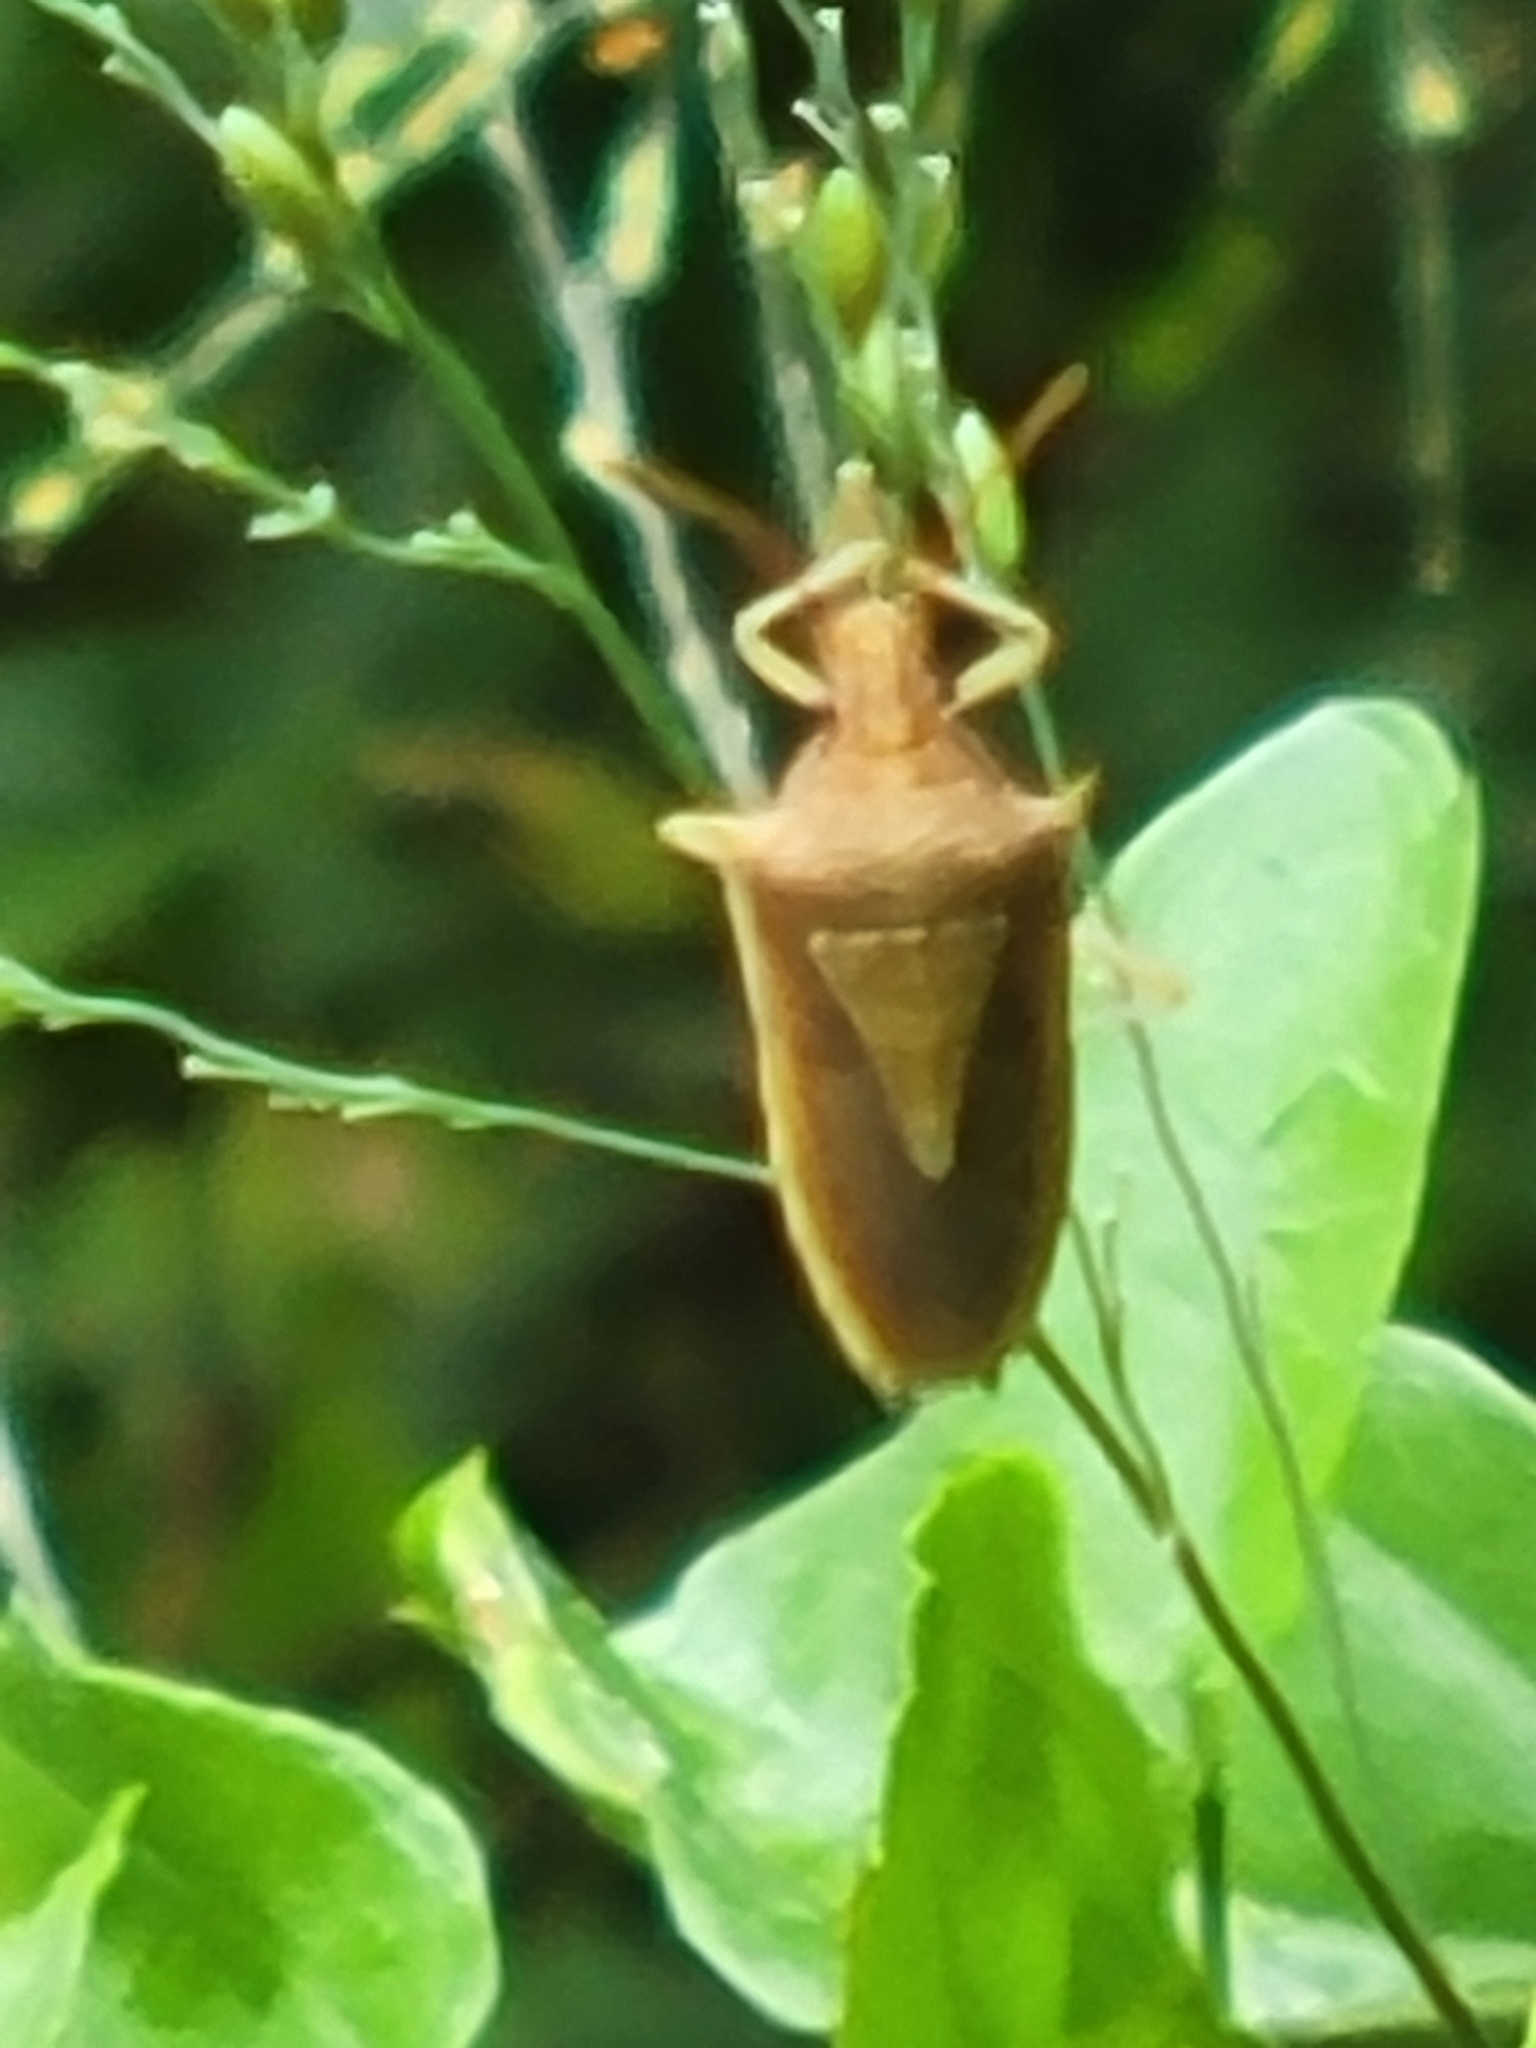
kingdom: Animalia
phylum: Arthropoda
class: Insecta
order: Hemiptera
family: Pentatomidae
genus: Oebalus
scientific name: Oebalus pugnax
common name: Rice stink bug
